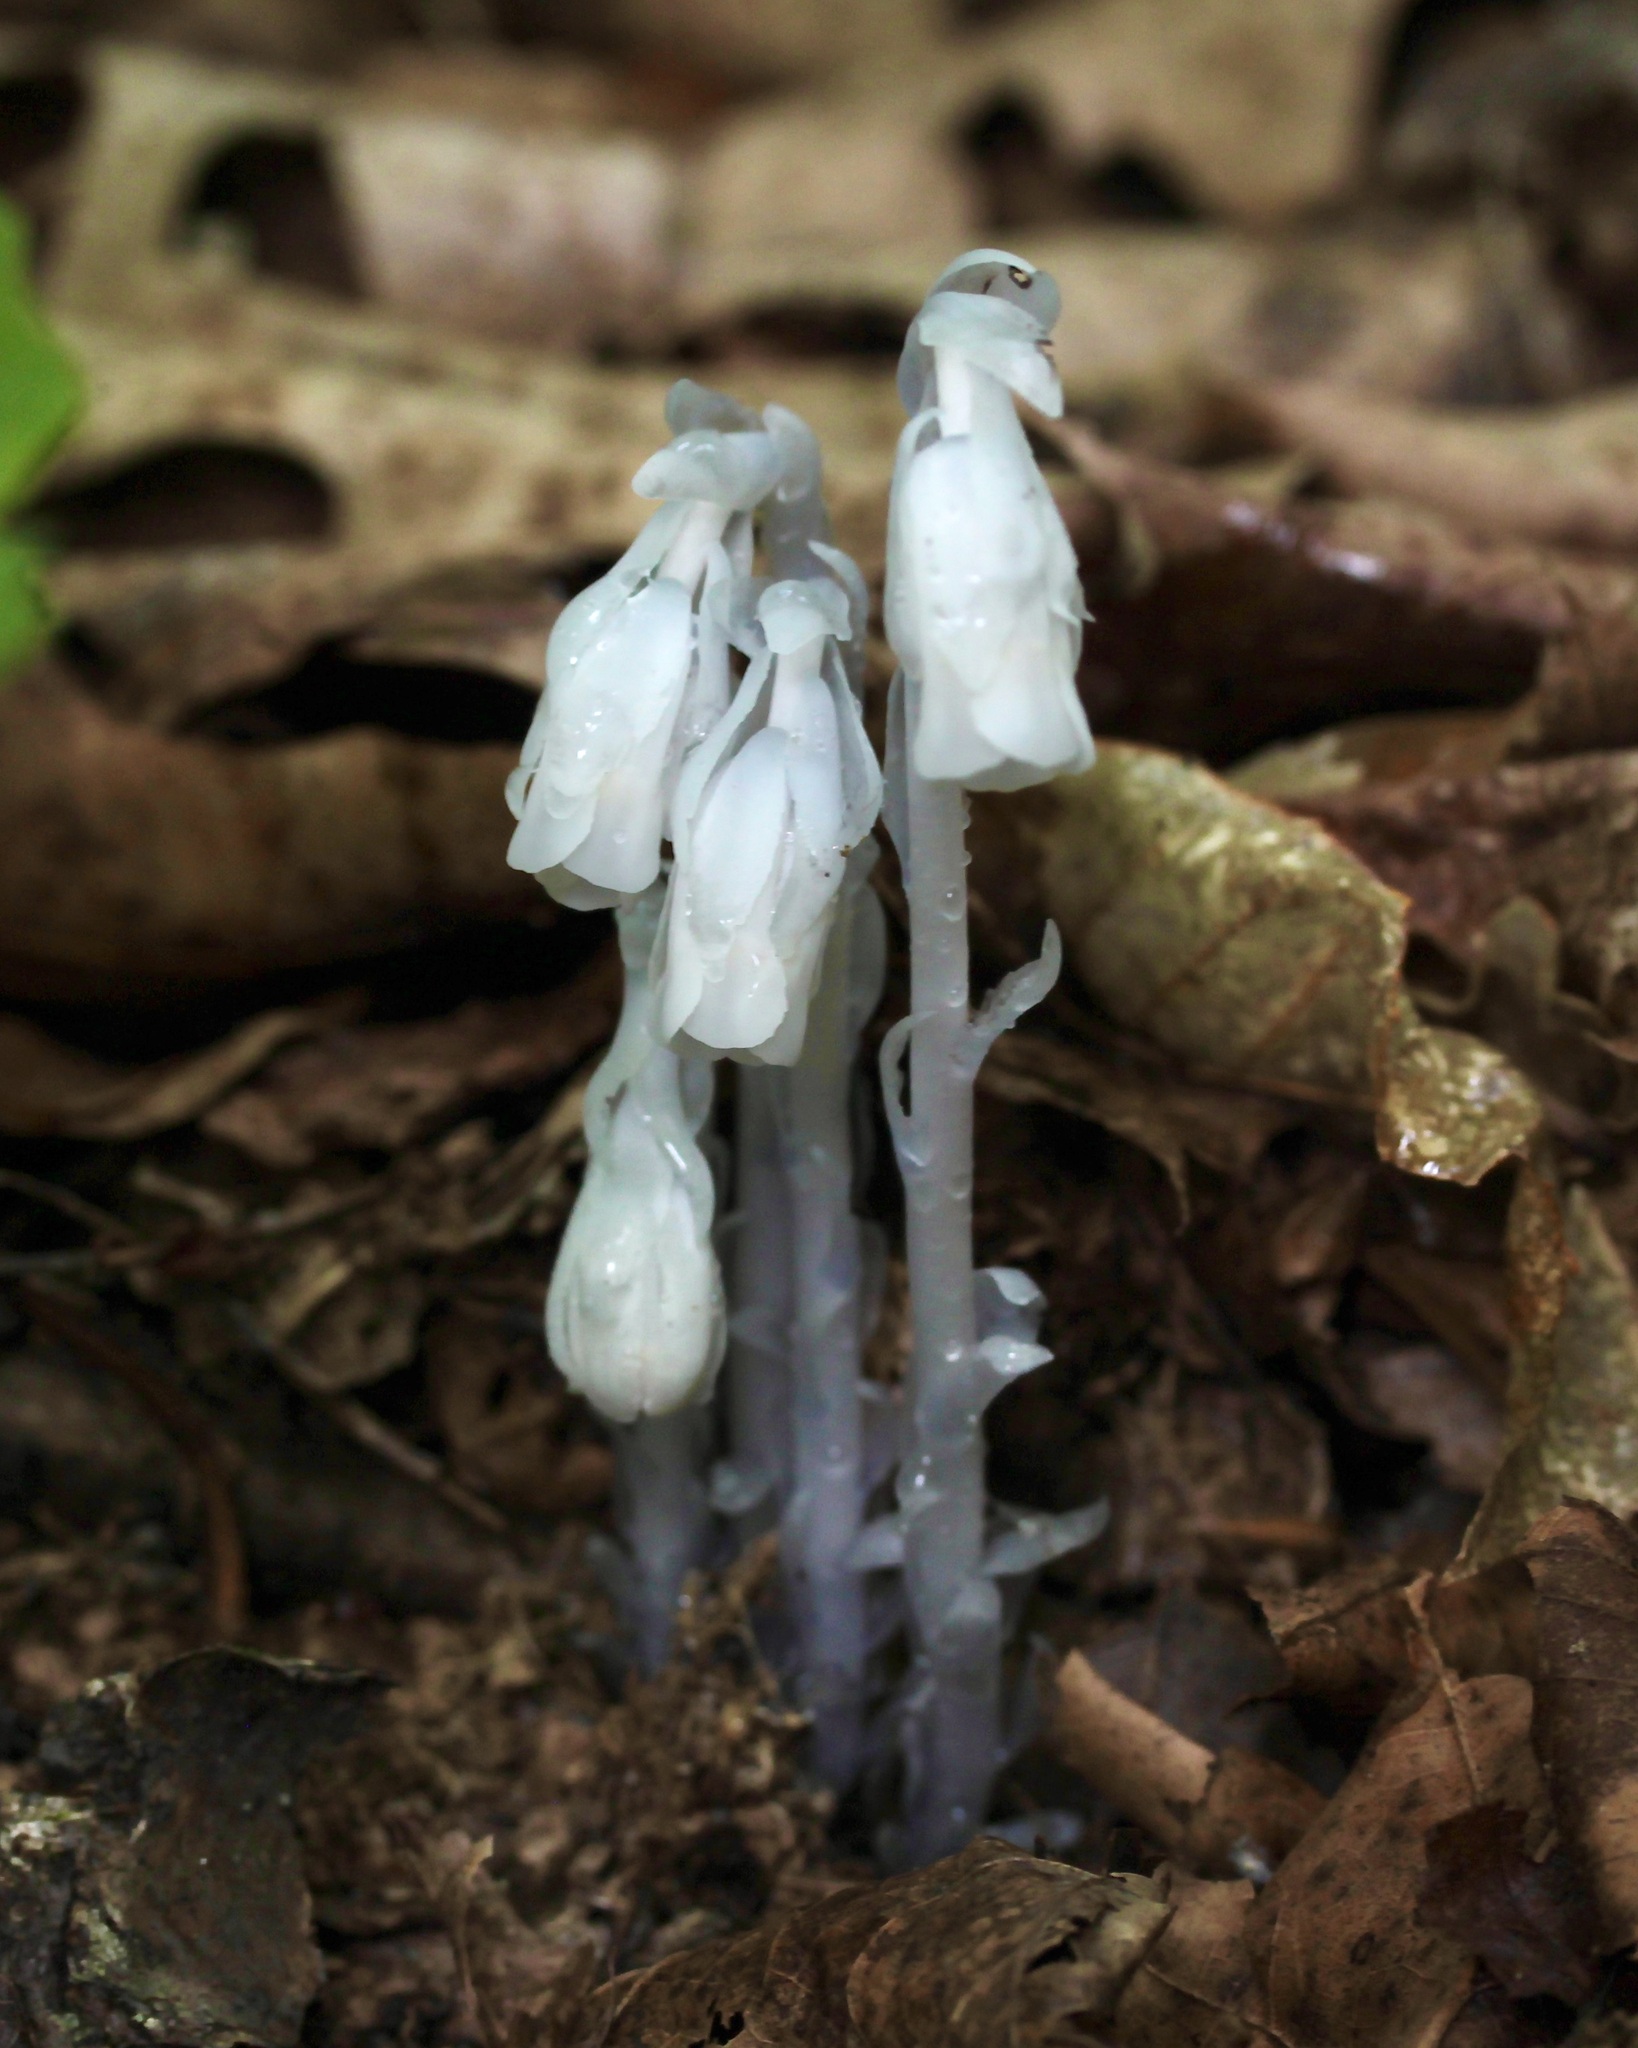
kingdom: Plantae
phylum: Tracheophyta
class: Magnoliopsida
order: Ericales
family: Ericaceae
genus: Monotropa
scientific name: Monotropa uniflora
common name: Convulsion root
